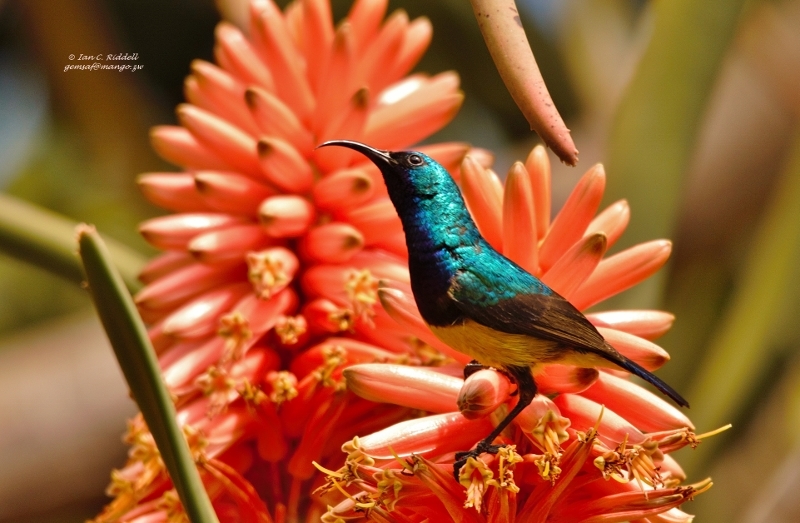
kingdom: Animalia
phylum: Chordata
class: Aves
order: Passeriformes
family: Nectariniidae
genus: Cinnyris
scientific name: Cinnyris venustus
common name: Variable sunbird
